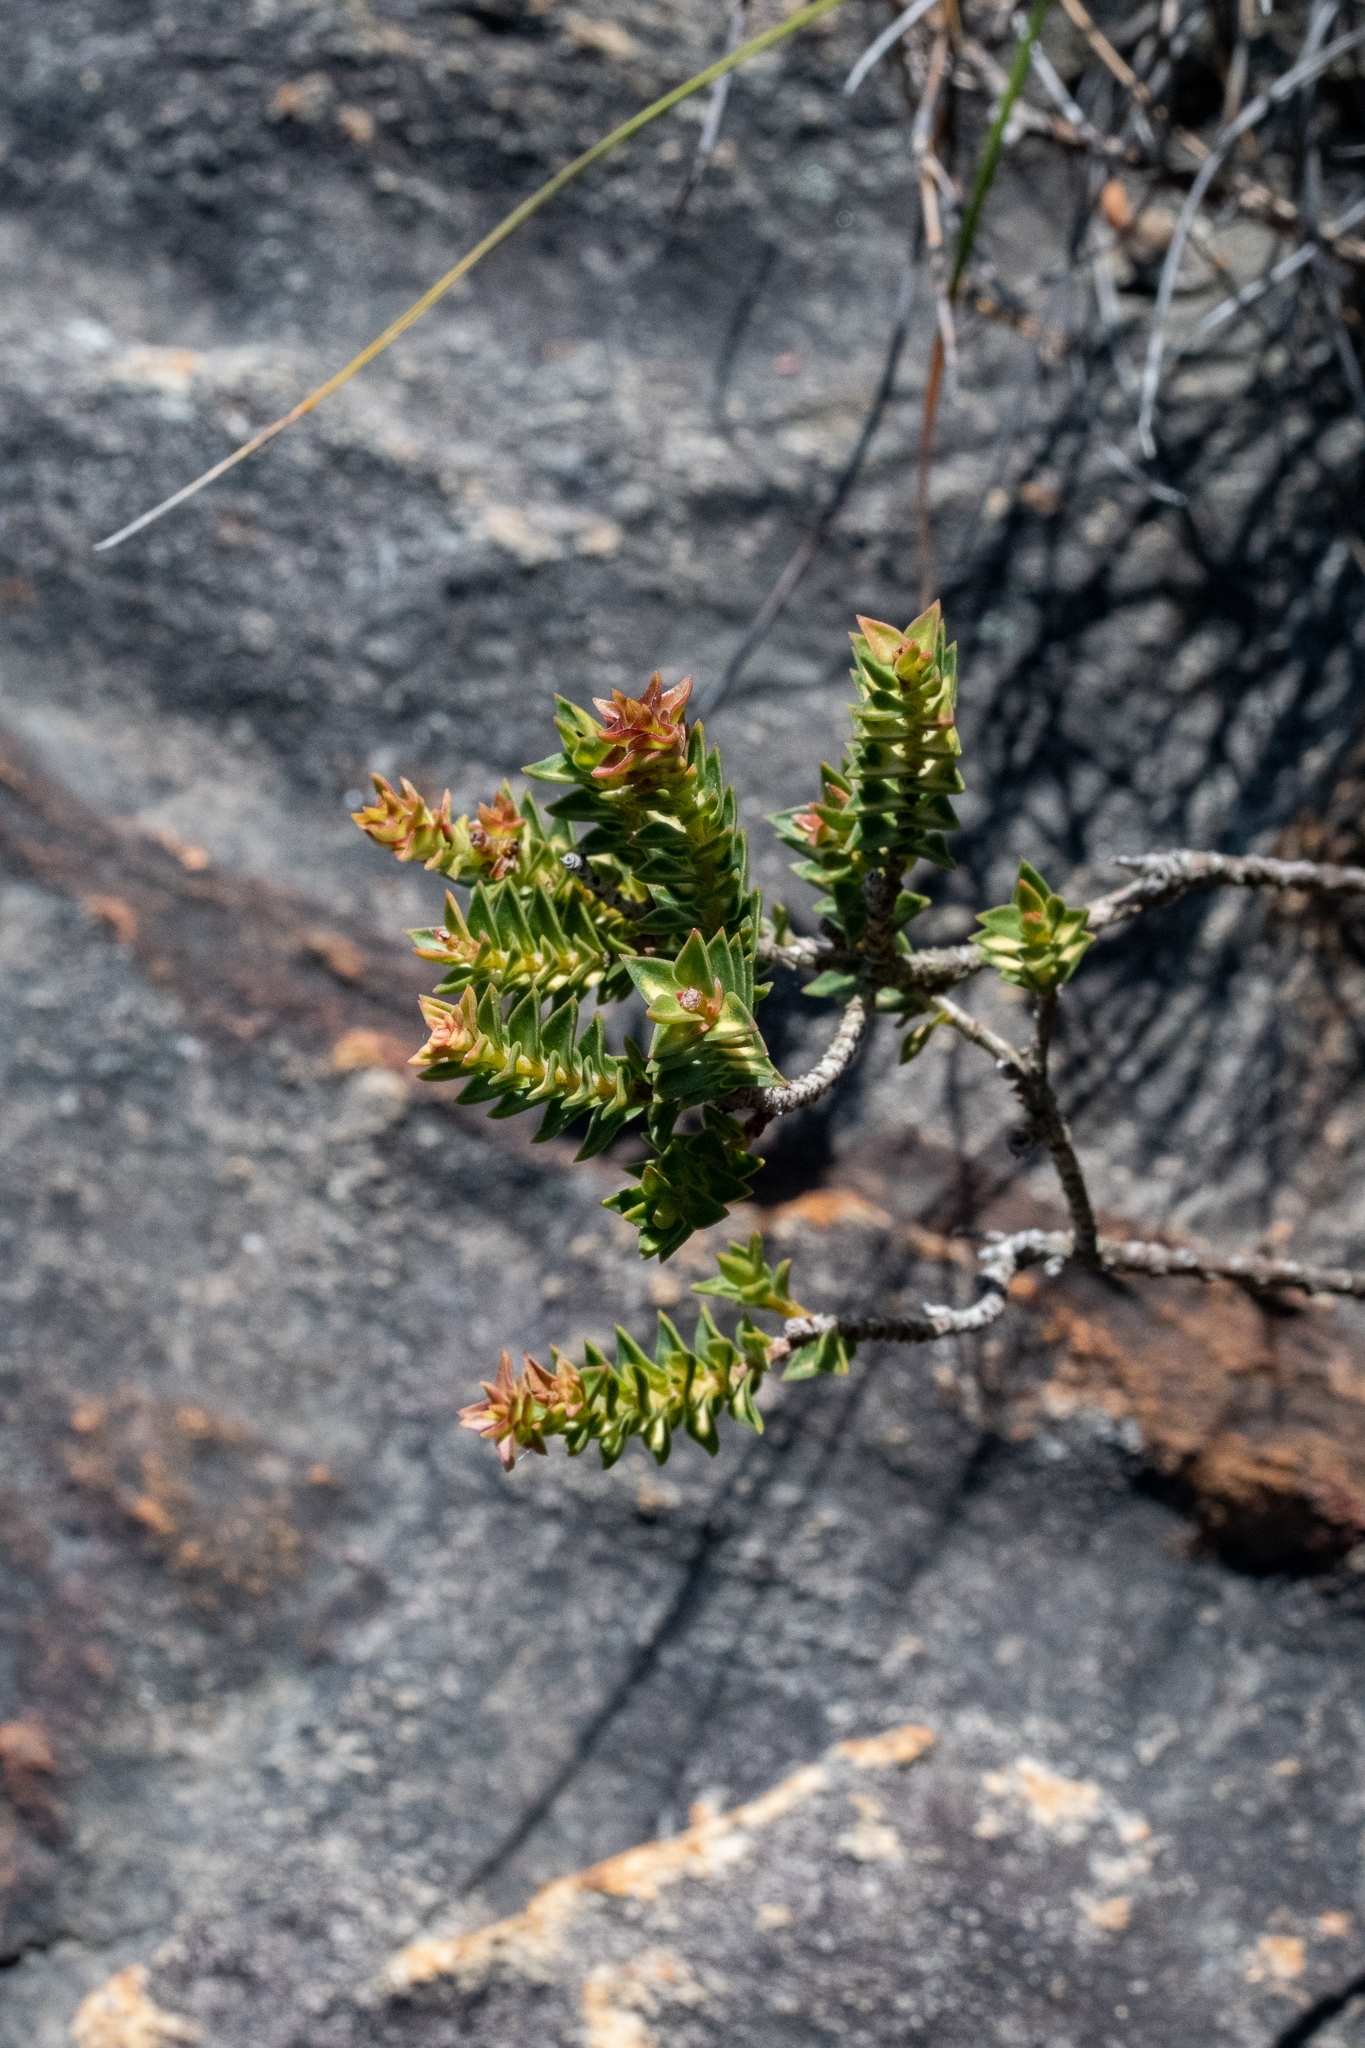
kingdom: Plantae
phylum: Tracheophyta
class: Magnoliopsida
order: Myrtales
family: Penaeaceae
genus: Penaea
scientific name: Penaea mucronata
